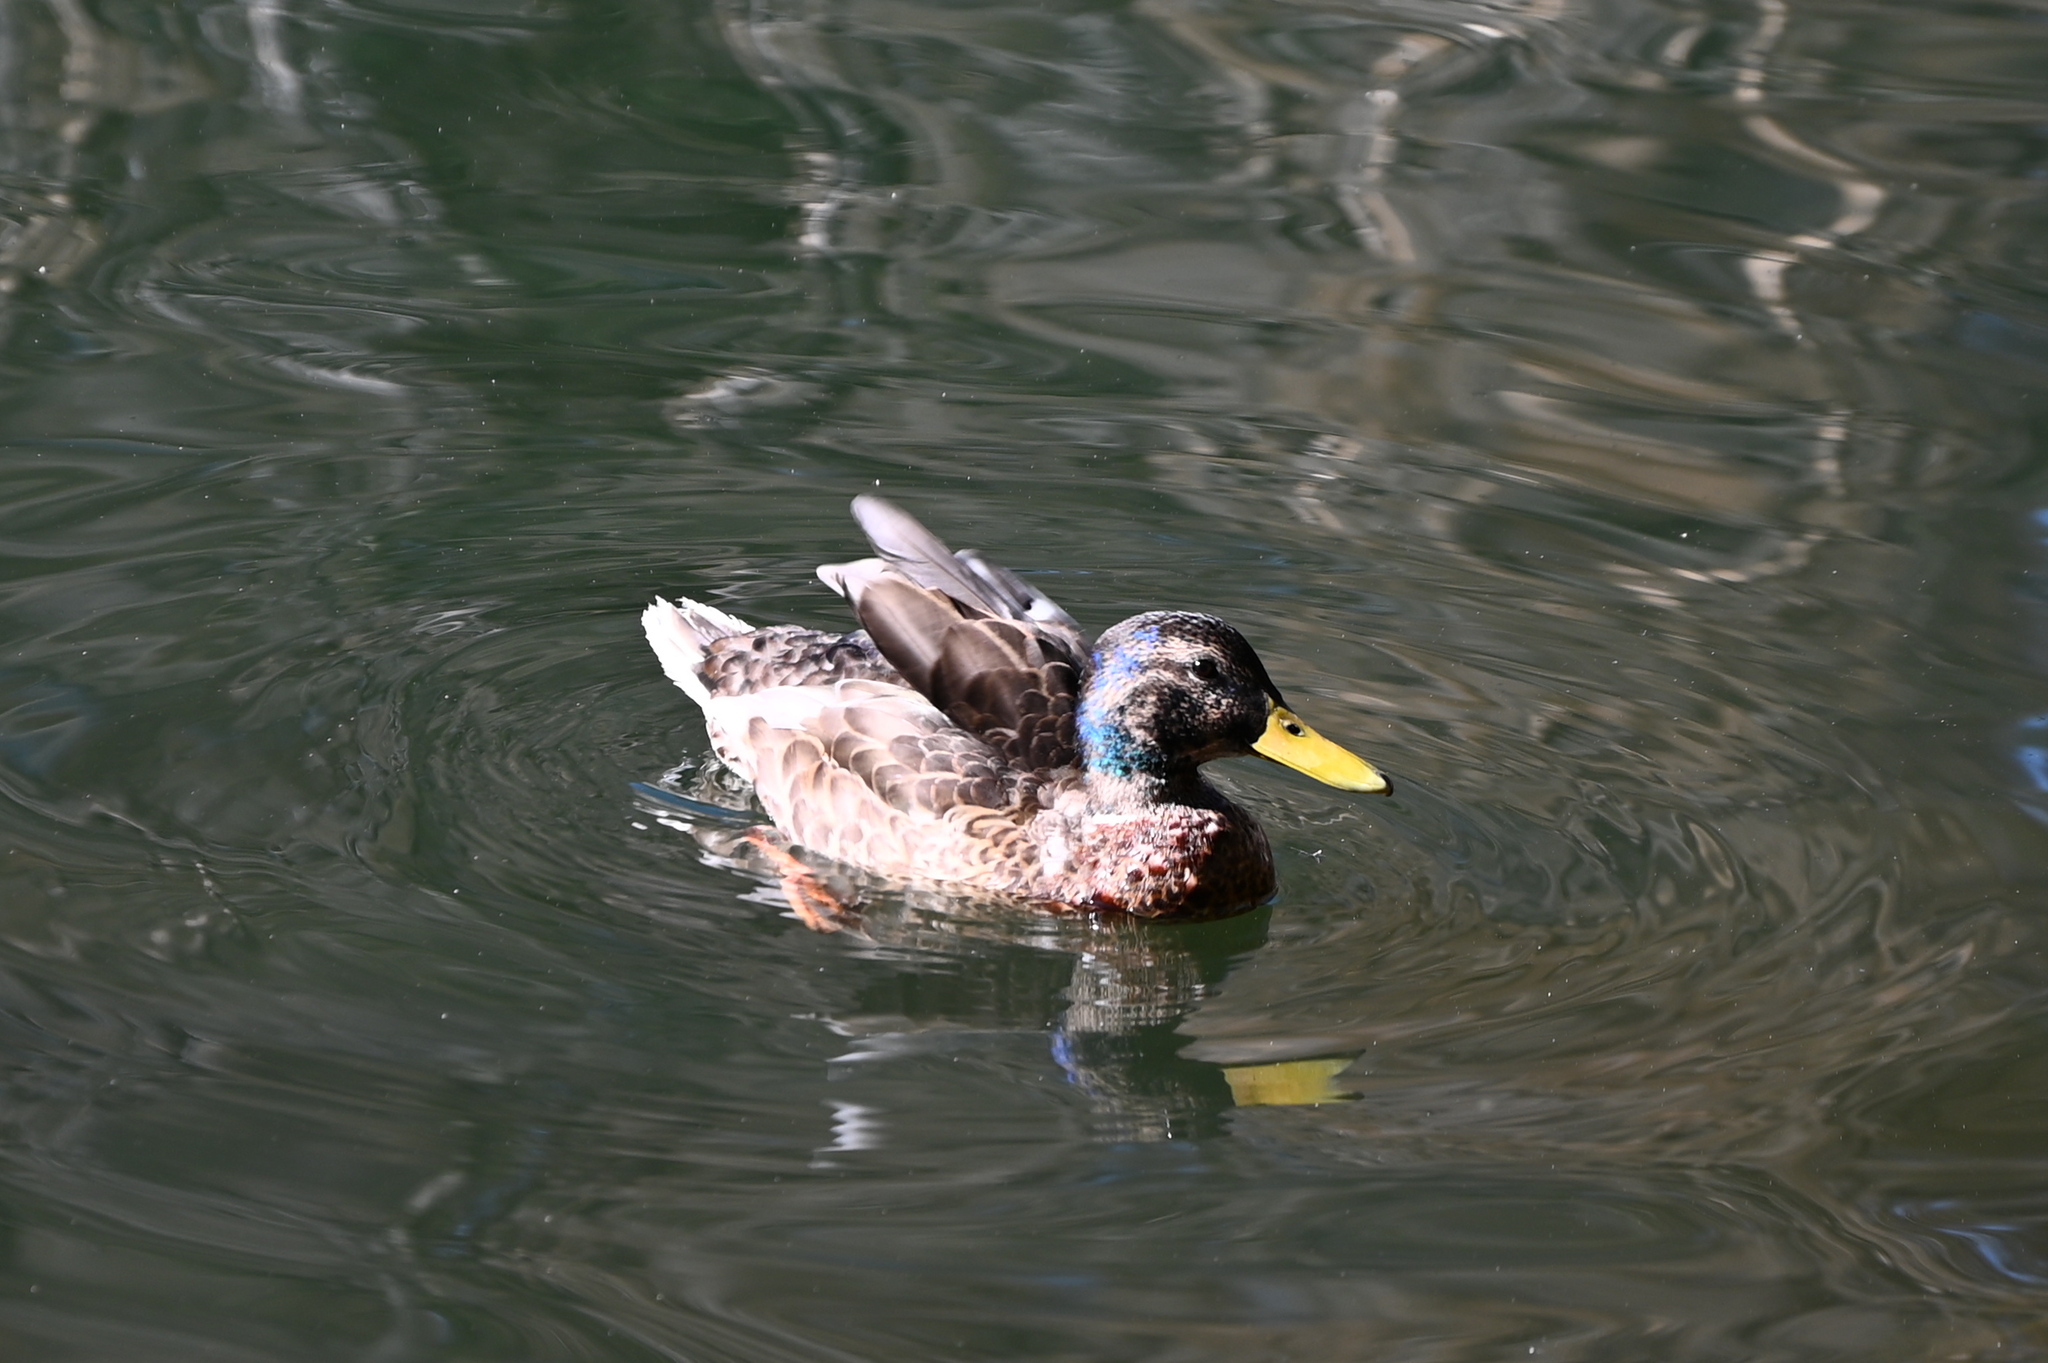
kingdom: Animalia
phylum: Chordata
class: Aves
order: Anseriformes
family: Anatidae
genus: Anas
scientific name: Anas platyrhynchos
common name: Mallard
